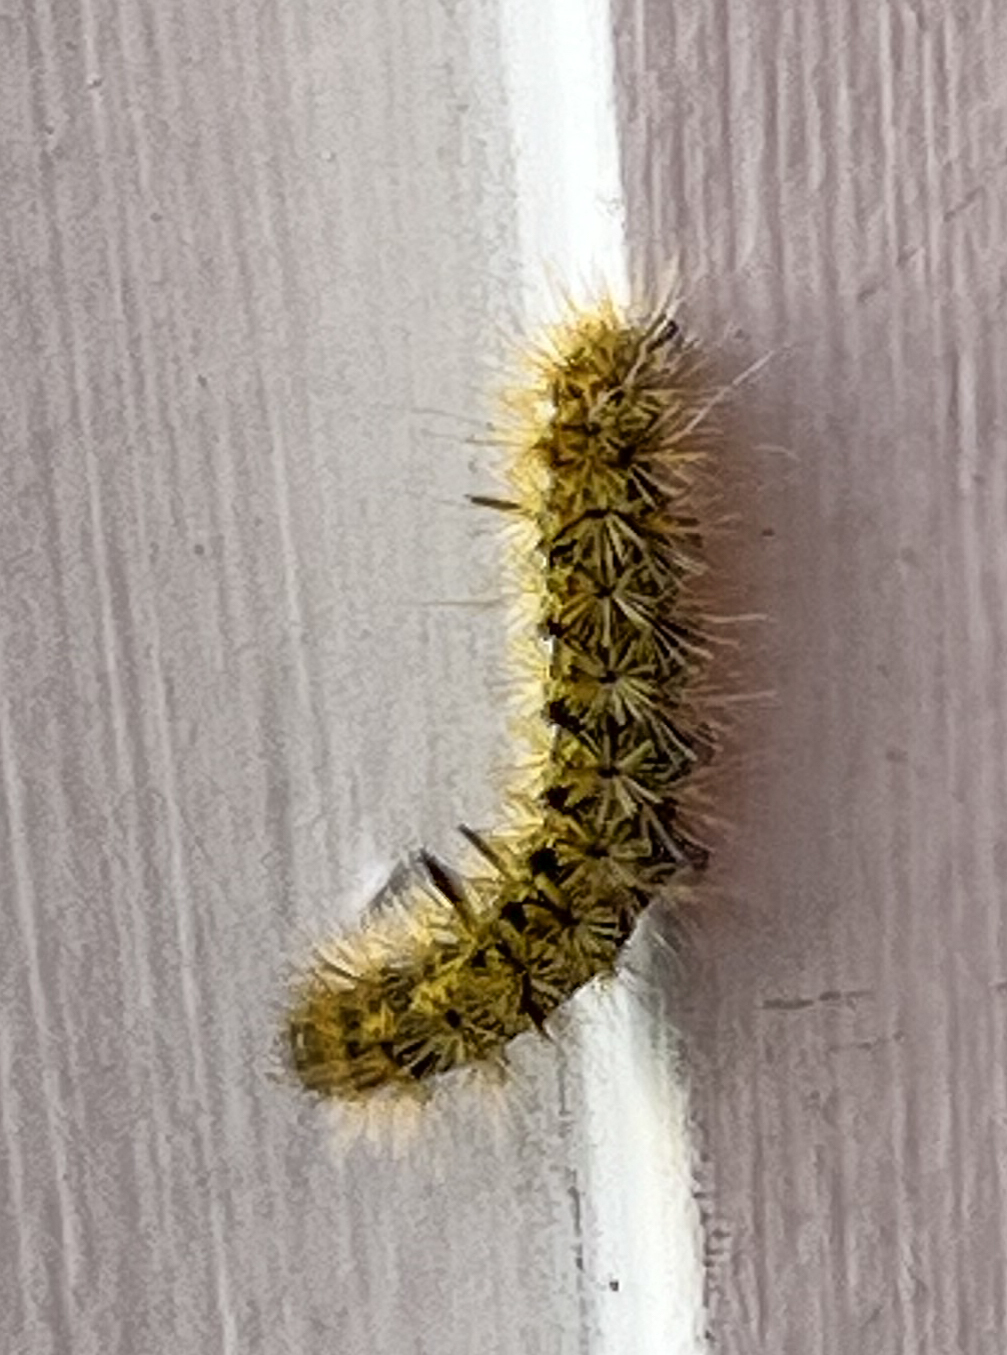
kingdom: Animalia
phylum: Arthropoda
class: Insecta
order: Lepidoptera
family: Erebidae
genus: Lophocampa
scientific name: Lophocampa argentata
